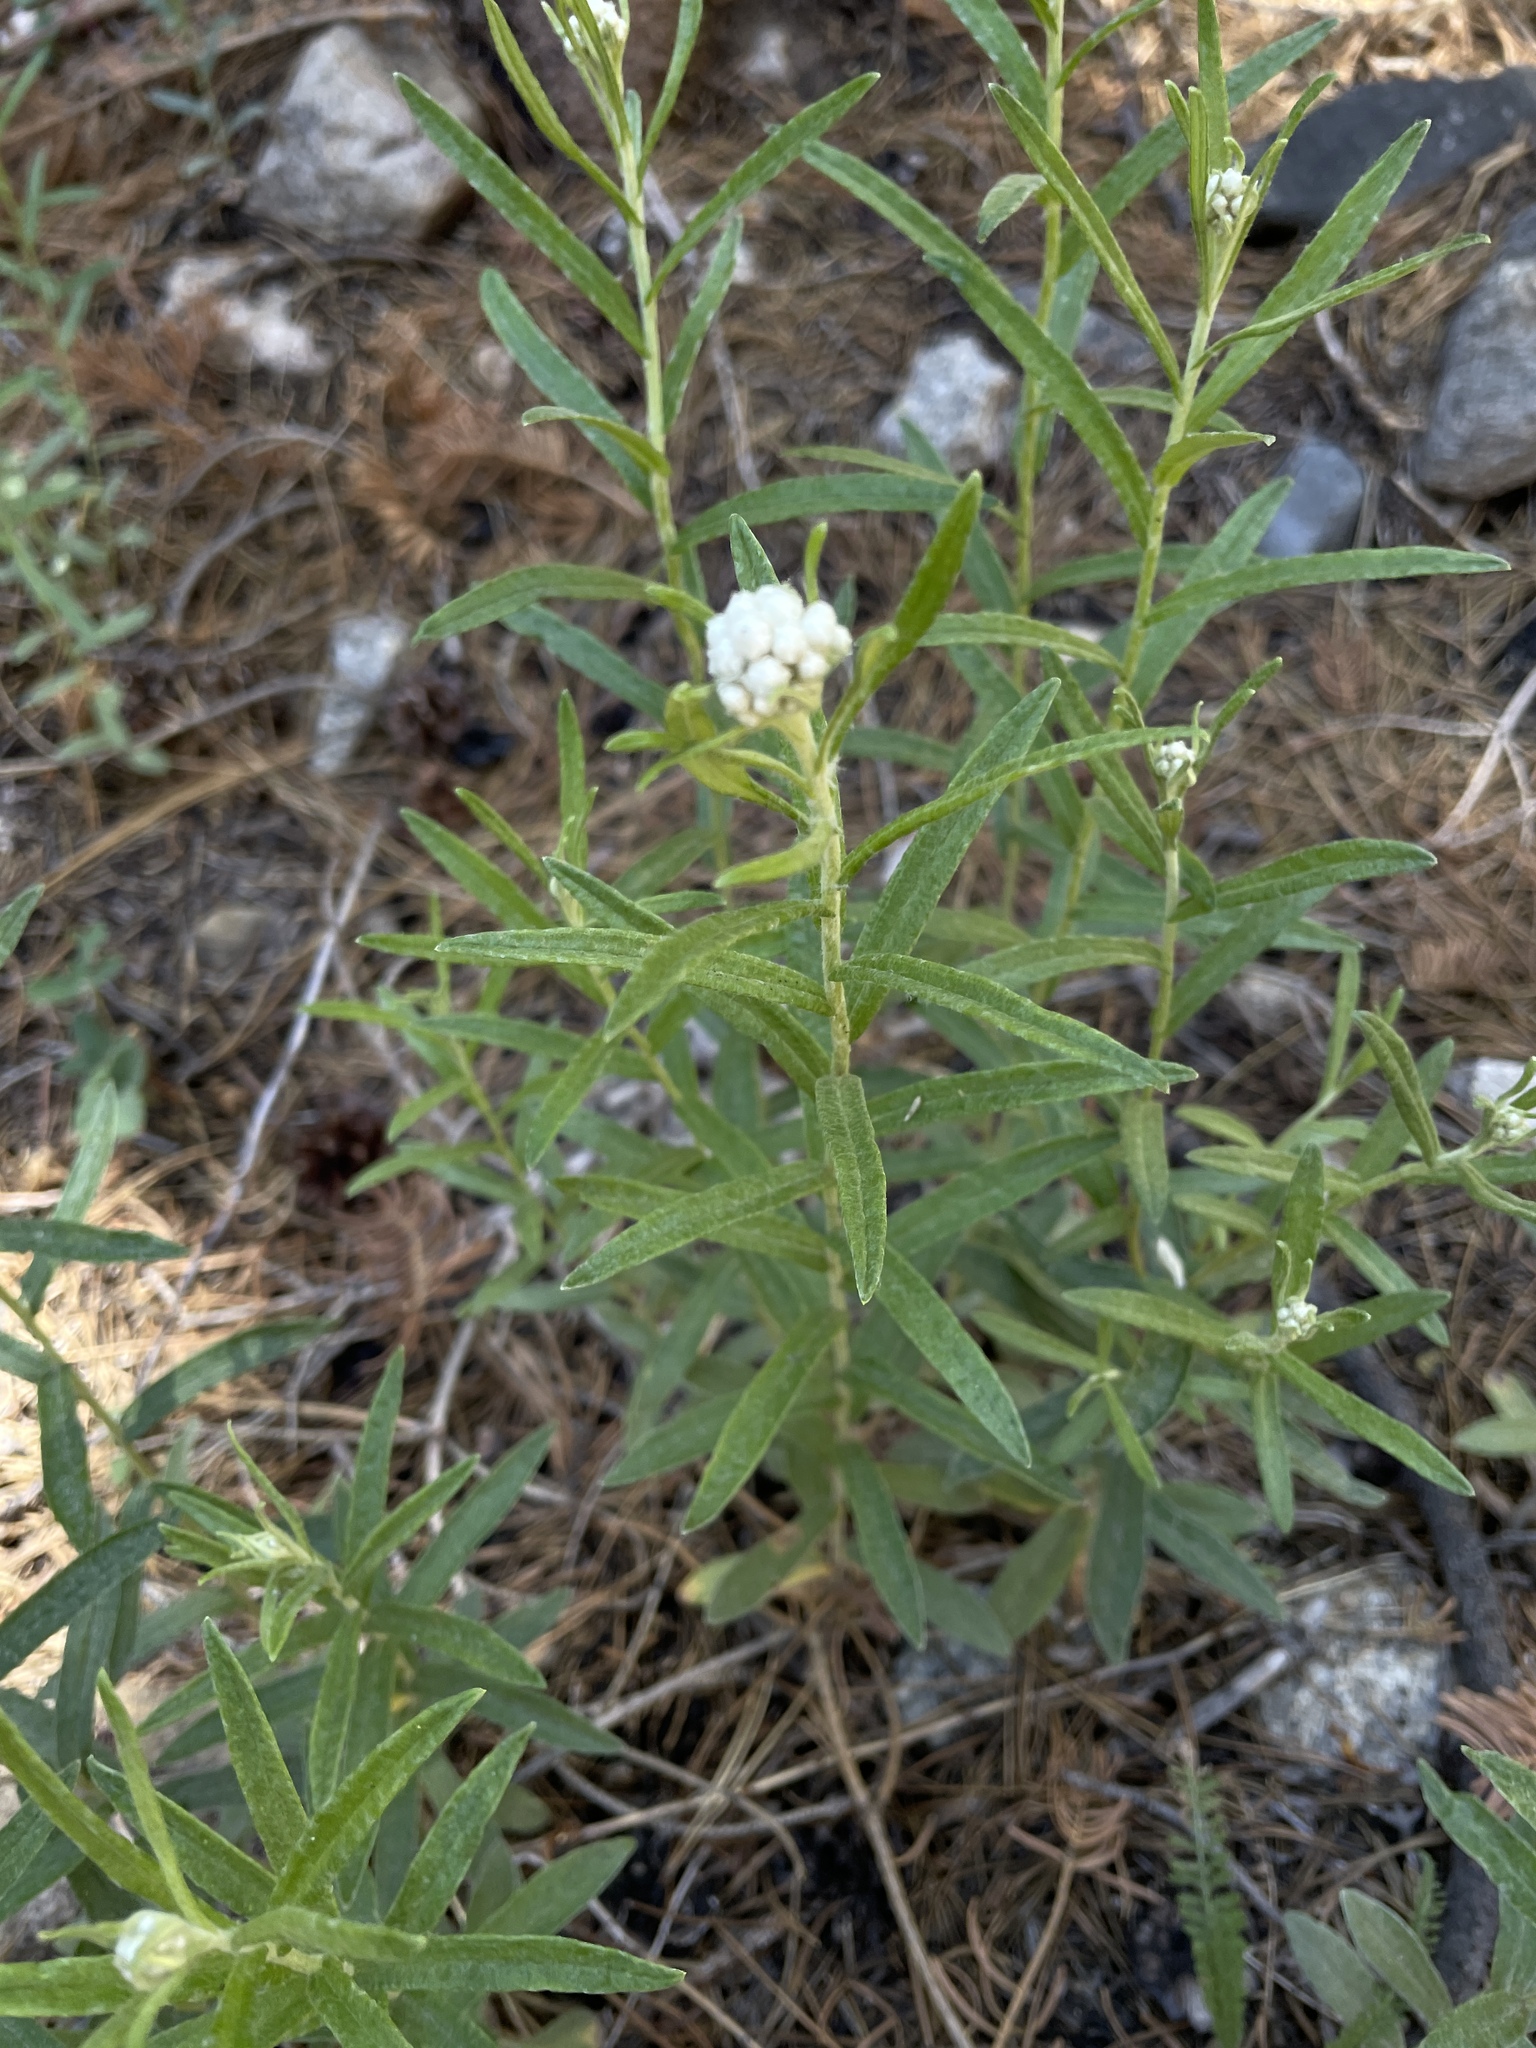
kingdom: Plantae
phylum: Tracheophyta
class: Magnoliopsida
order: Asterales
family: Asteraceae
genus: Anaphalis
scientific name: Anaphalis margaritacea
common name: Pearly everlasting
